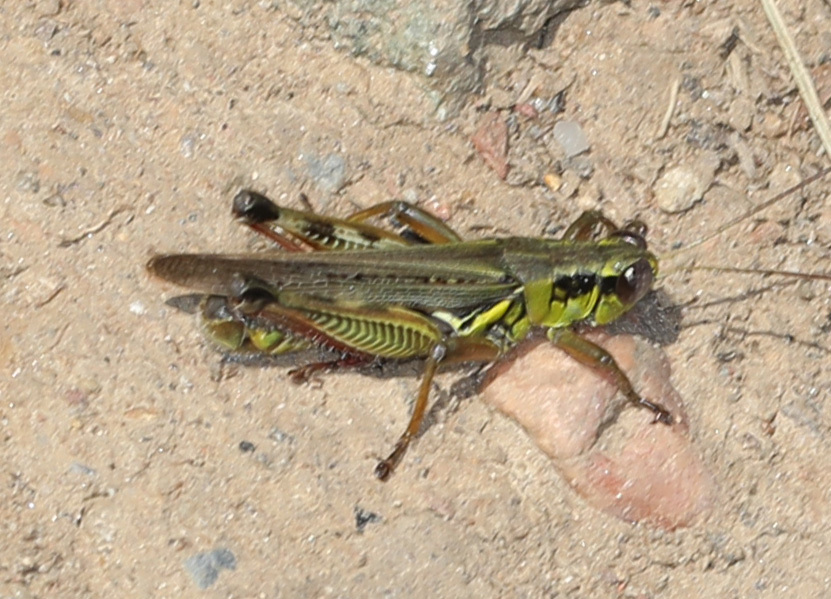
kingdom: Animalia
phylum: Arthropoda
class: Insecta
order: Orthoptera
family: Acrididae
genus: Melanoplus
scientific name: Melanoplus femurrubrum
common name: Red-legged grasshopper
